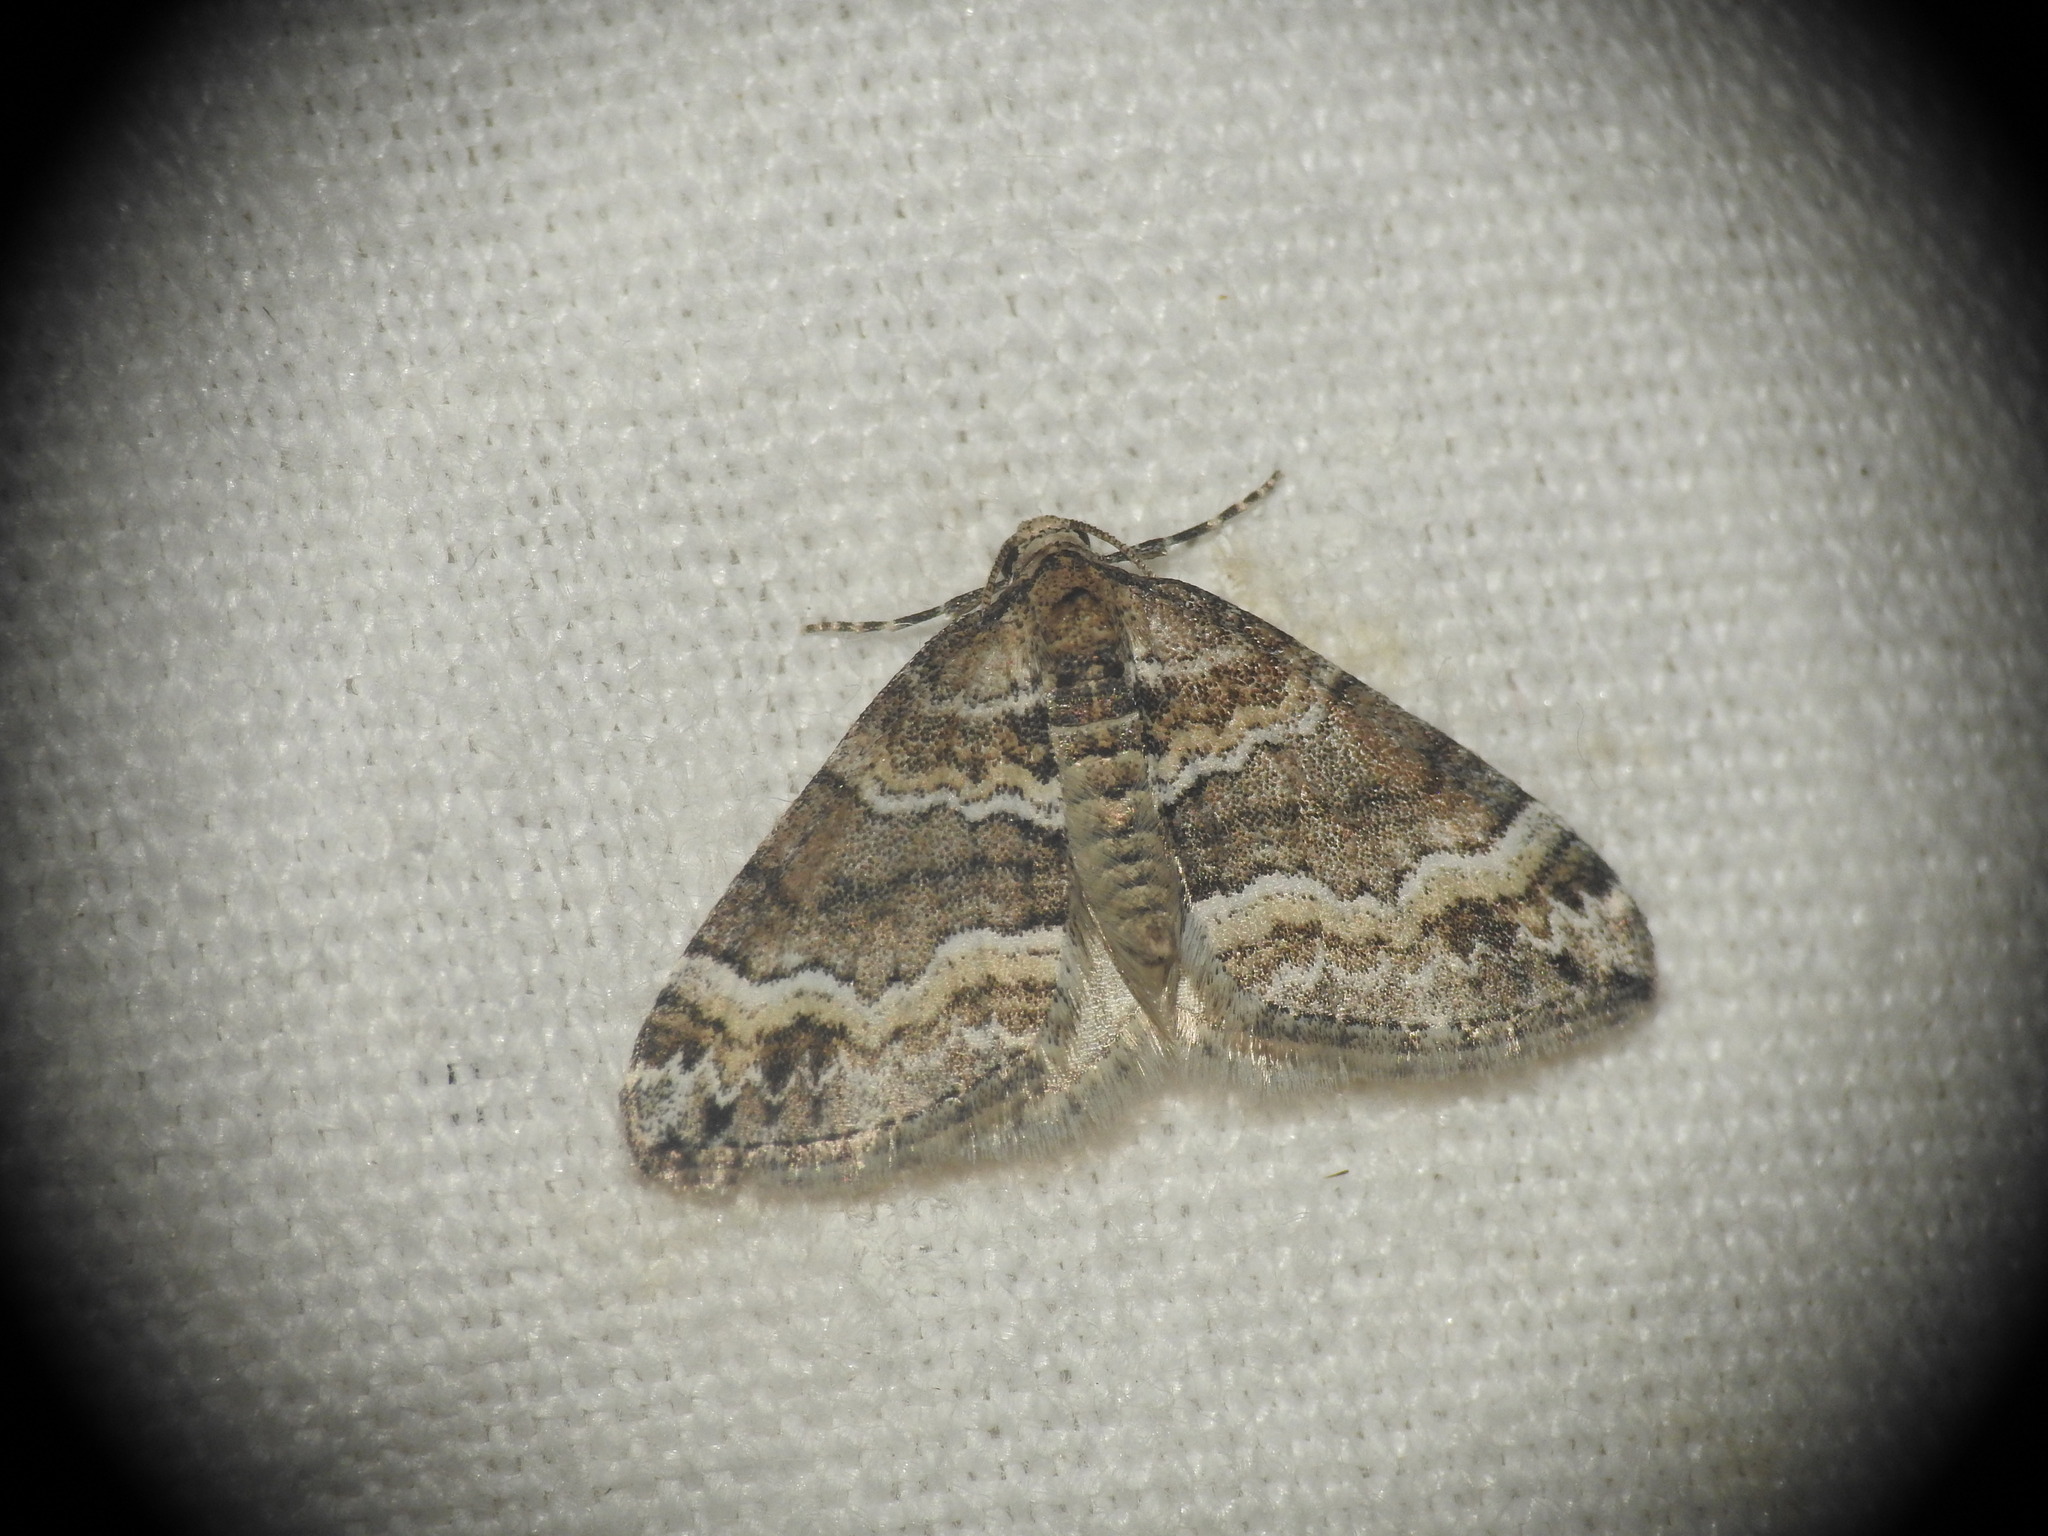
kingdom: Animalia
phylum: Arthropoda
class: Insecta
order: Lepidoptera
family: Geometridae
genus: Perizoma
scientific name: Perizoma bifaciata
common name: Barred rivulet
